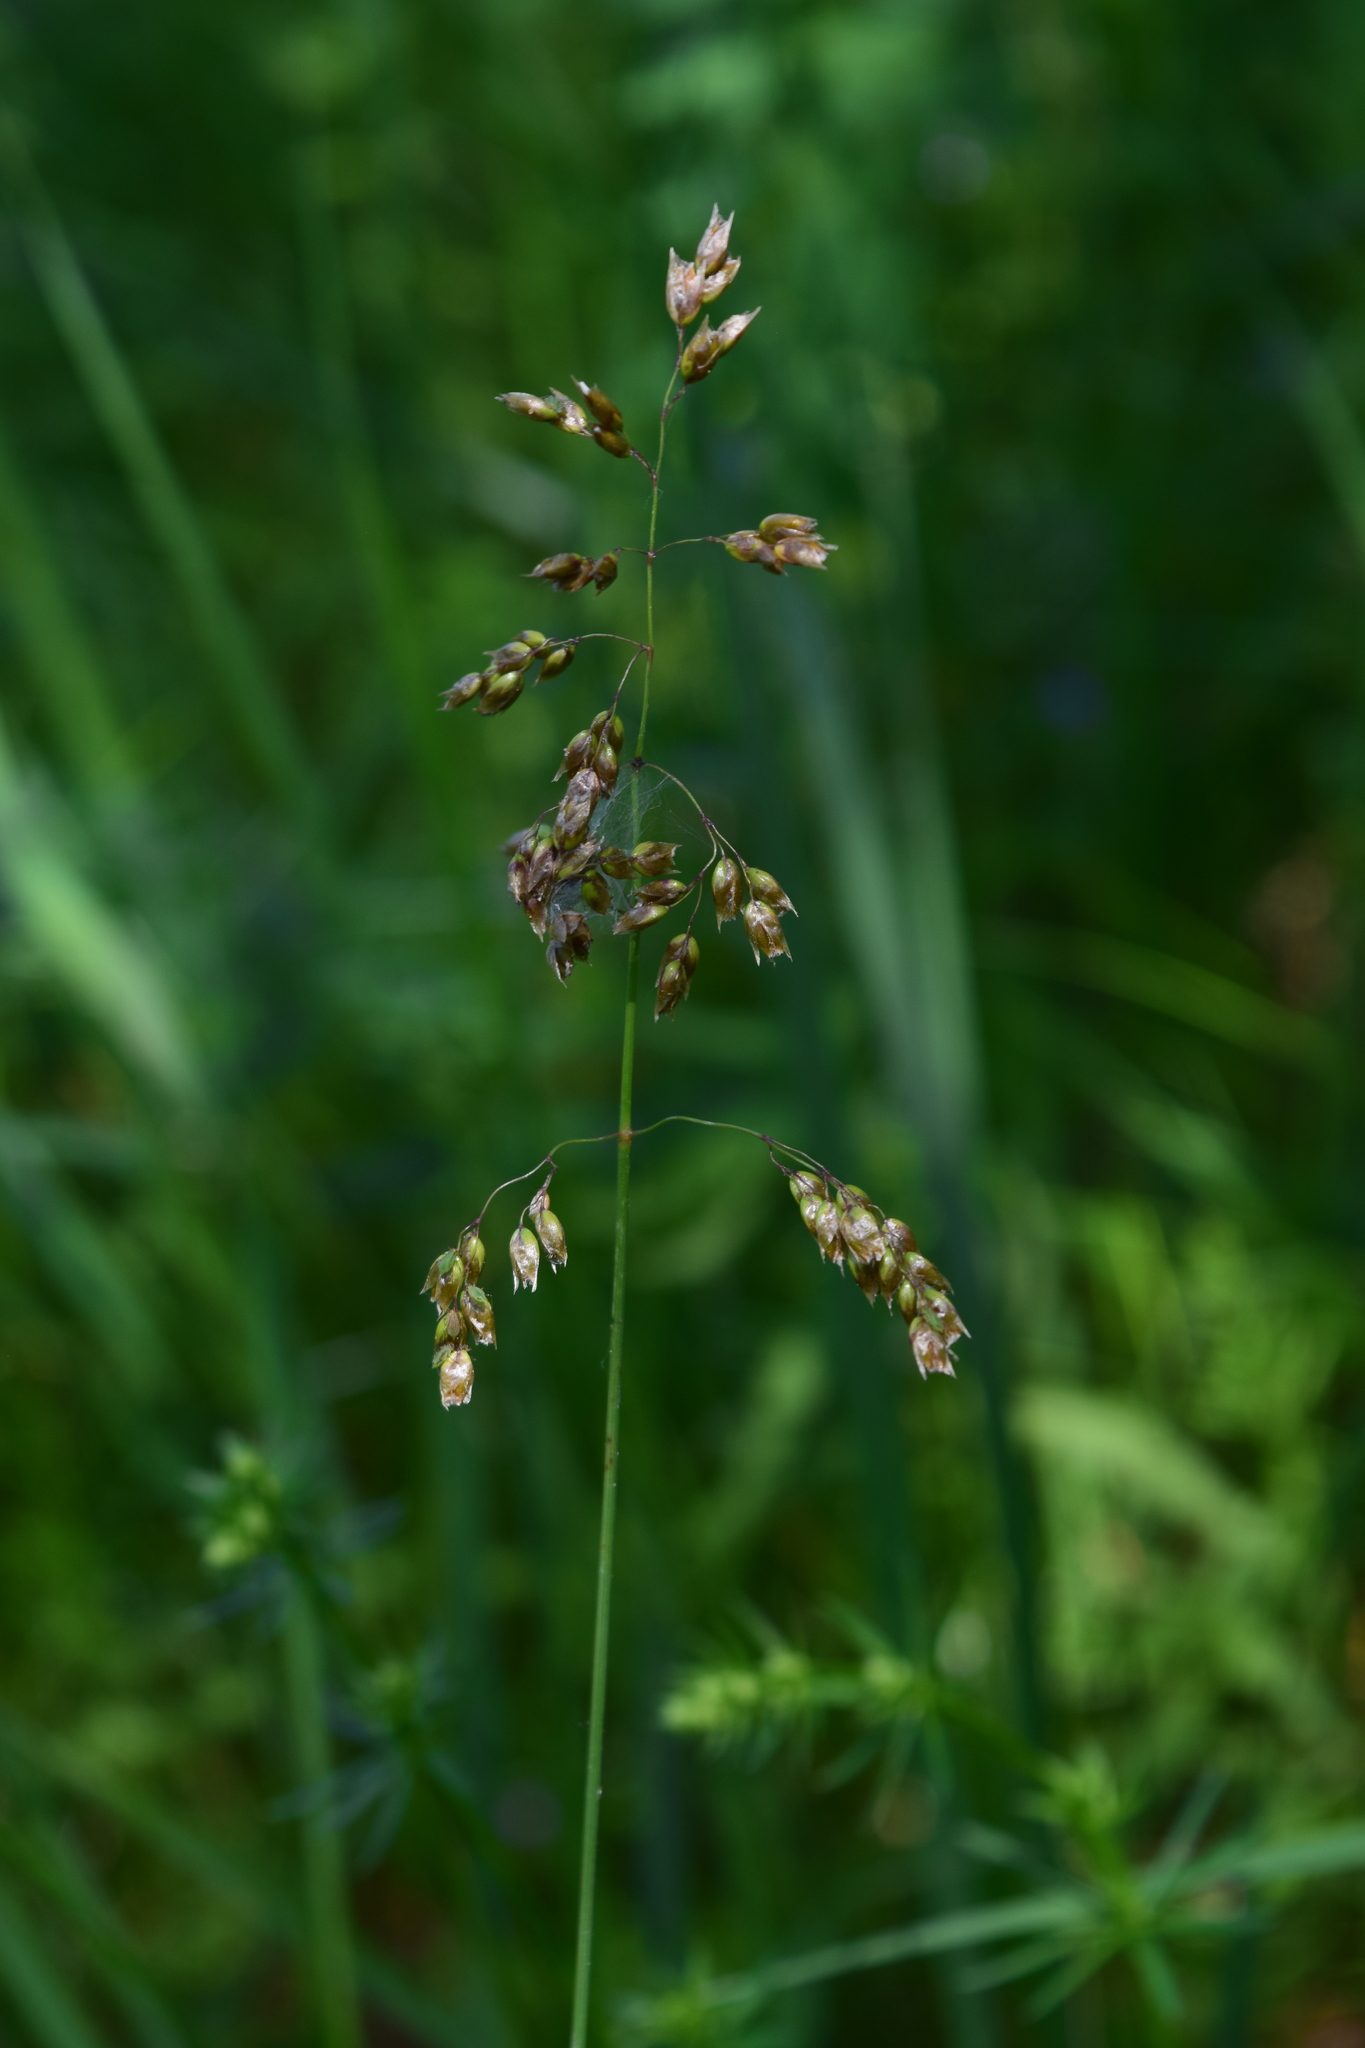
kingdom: Plantae
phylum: Tracheophyta
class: Liliopsida
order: Poales
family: Poaceae
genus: Anthoxanthum
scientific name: Anthoxanthum nitens
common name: Holy grass
